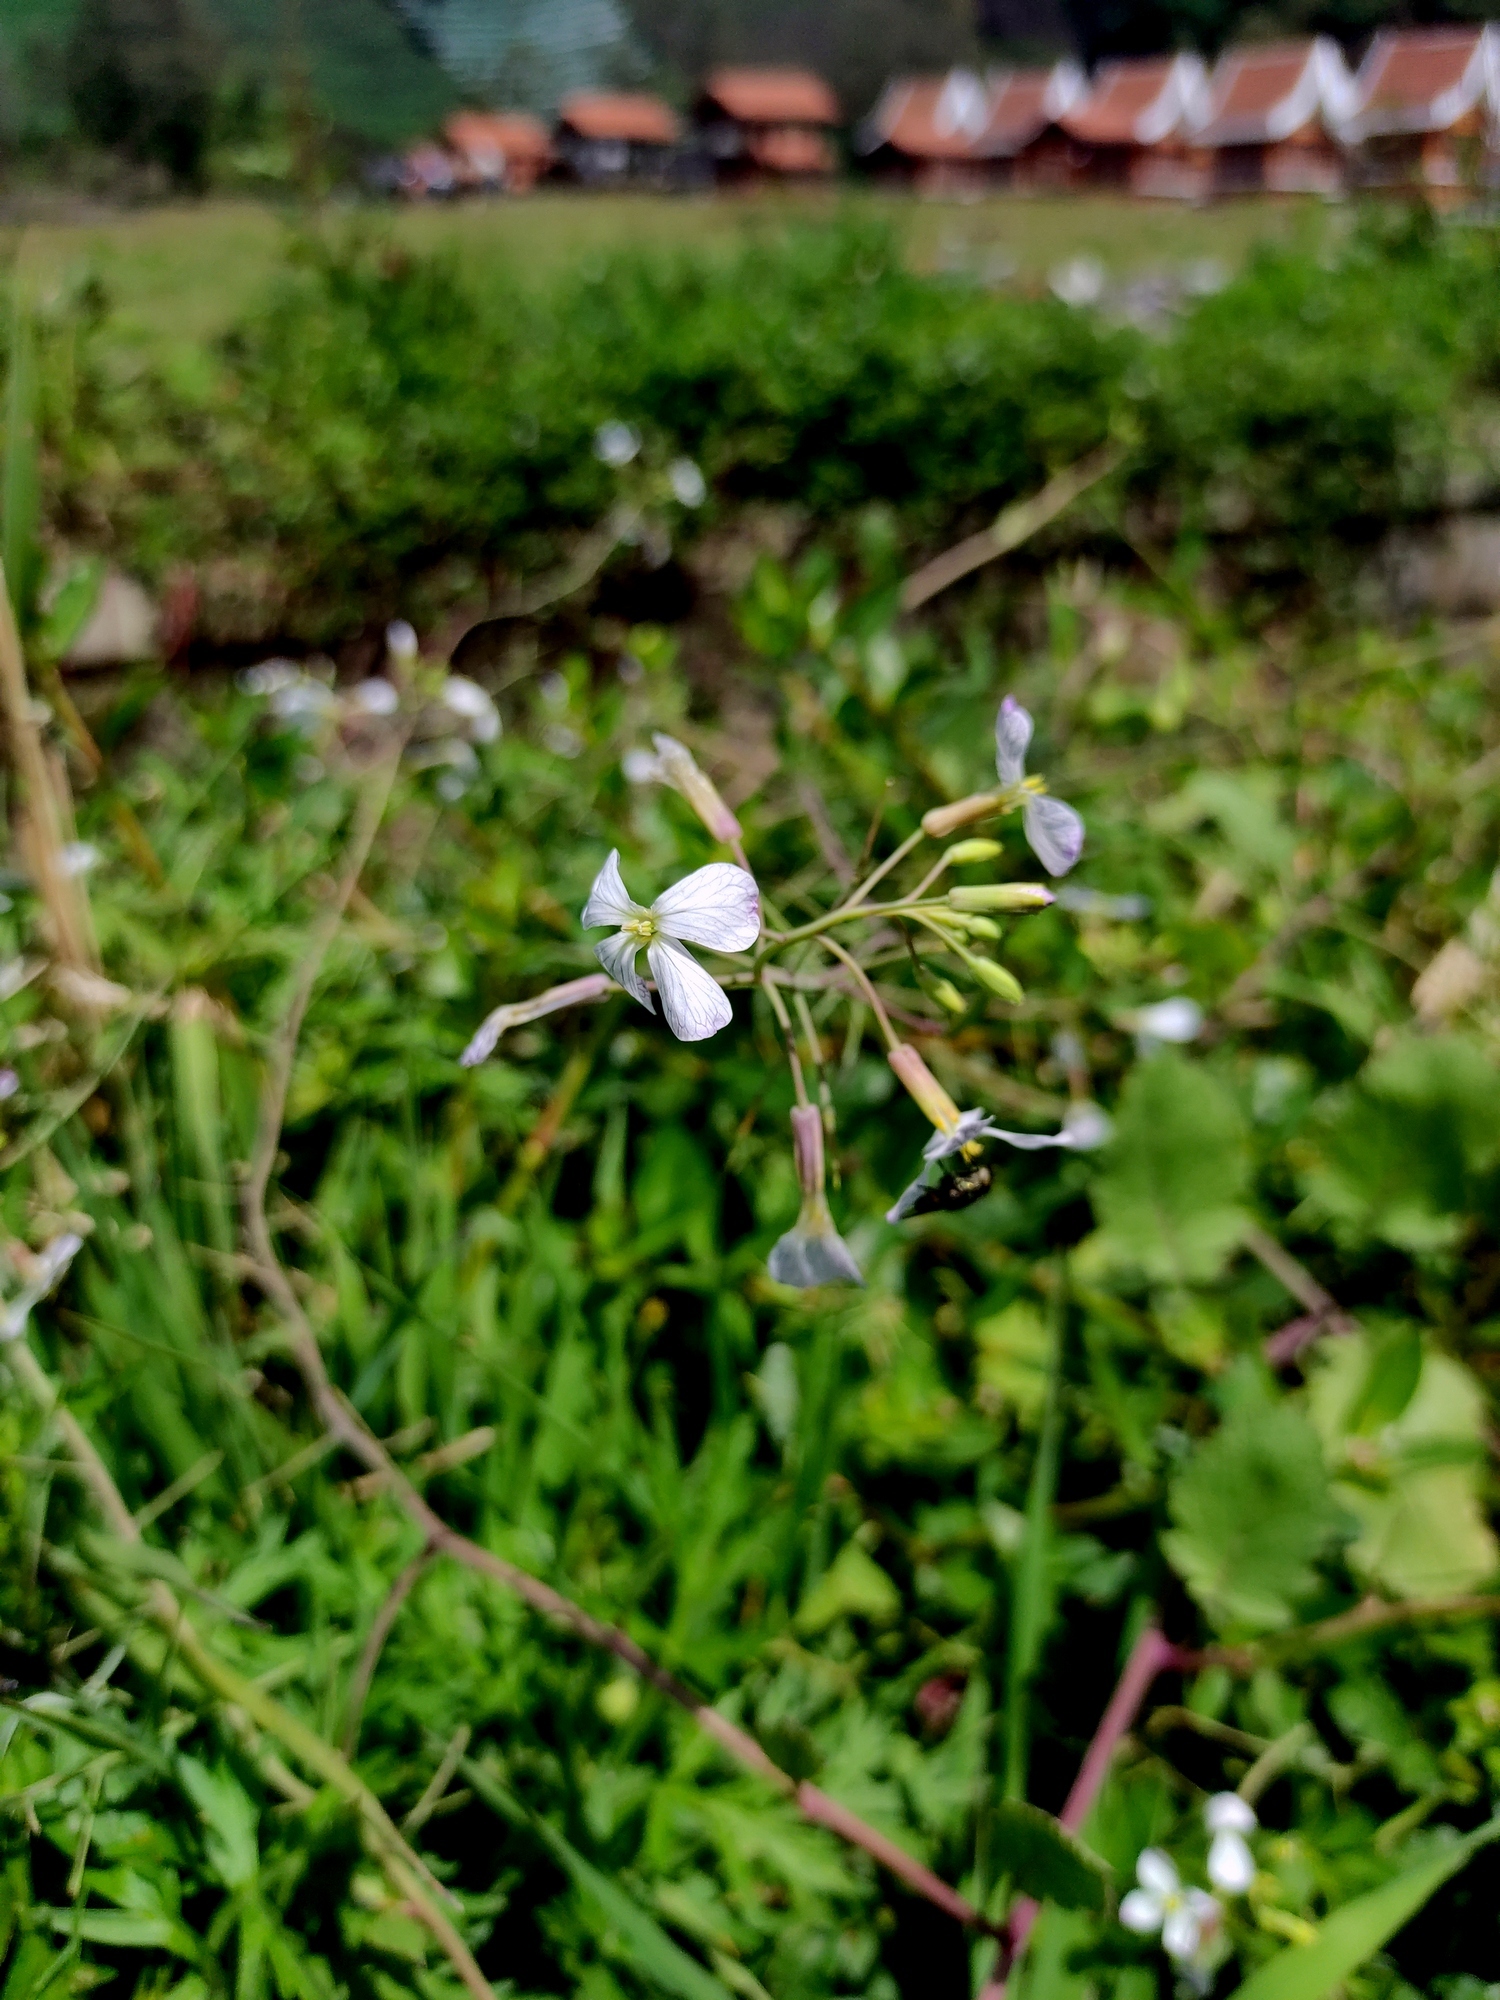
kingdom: Plantae
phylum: Tracheophyta
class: Magnoliopsida
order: Brassicales
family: Brassicaceae
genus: Raphanus
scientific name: Raphanus sativus
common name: Cultivated radish
